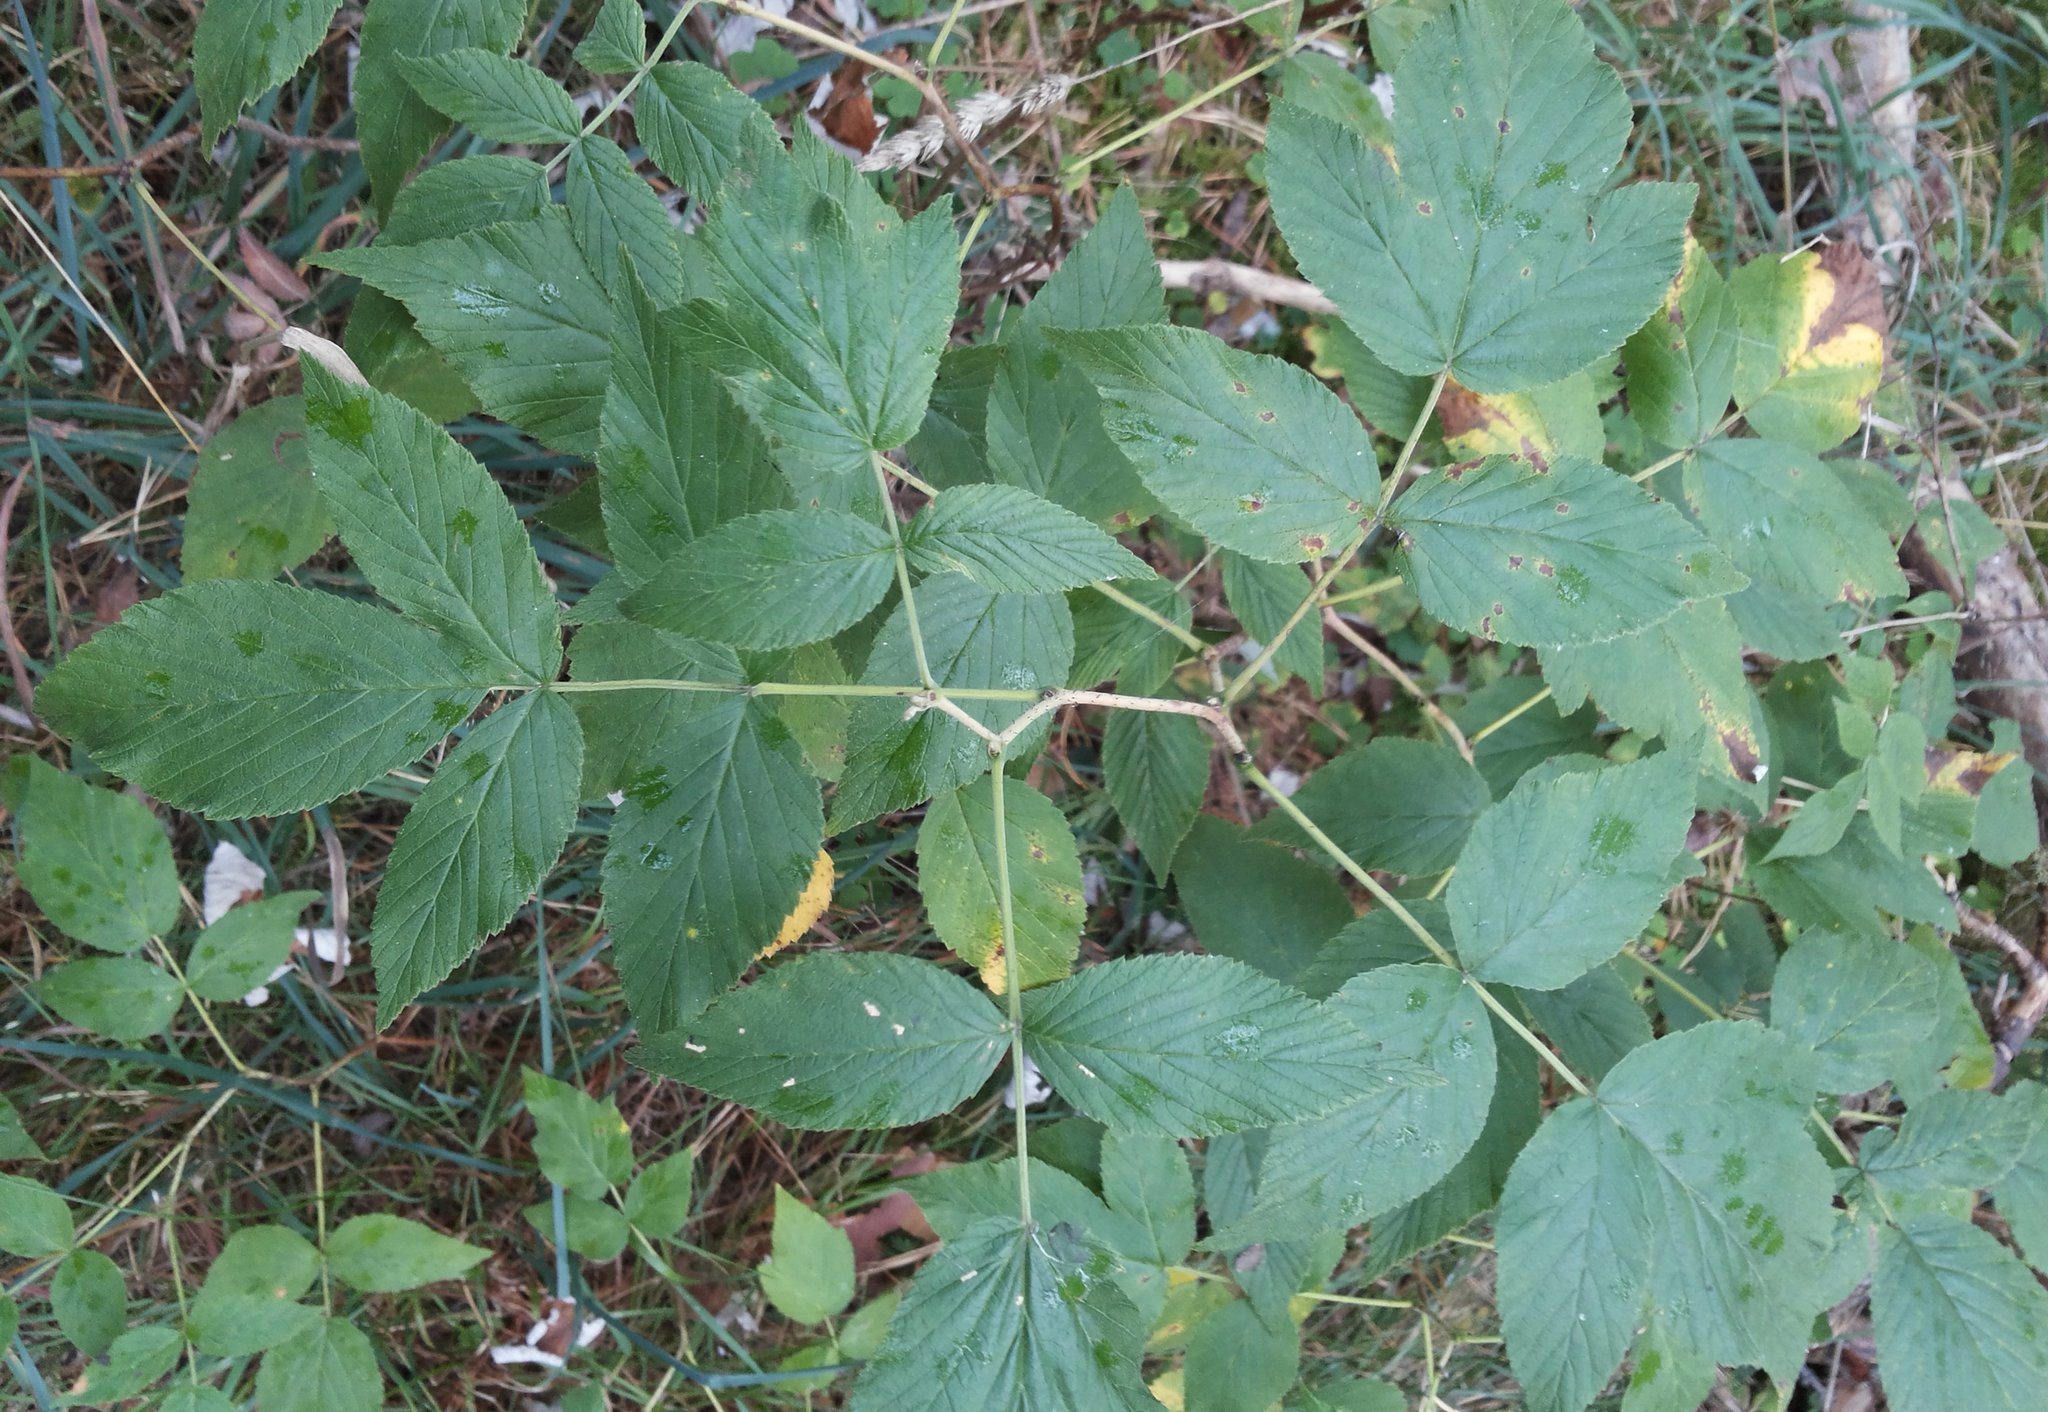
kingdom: Plantae
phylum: Tracheophyta
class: Magnoliopsida
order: Rosales
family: Rosaceae
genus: Rubus
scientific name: Rubus idaeus
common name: Raspberry
